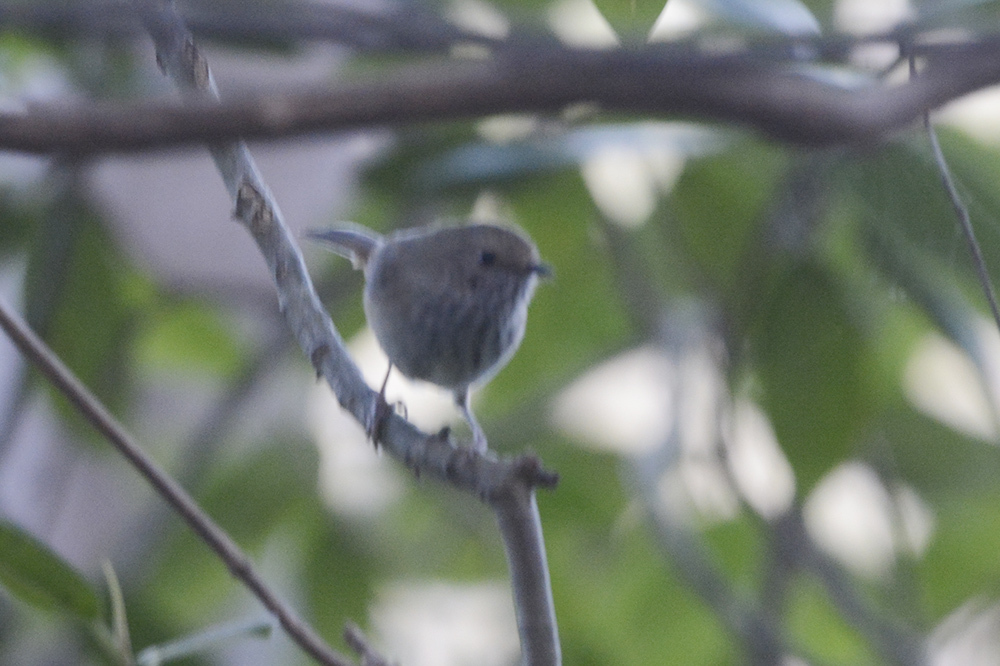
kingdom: Animalia
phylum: Chordata
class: Aves
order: Passeriformes
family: Acanthizidae
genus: Acanthiza
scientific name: Acanthiza pusilla
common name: Brown thornbill
